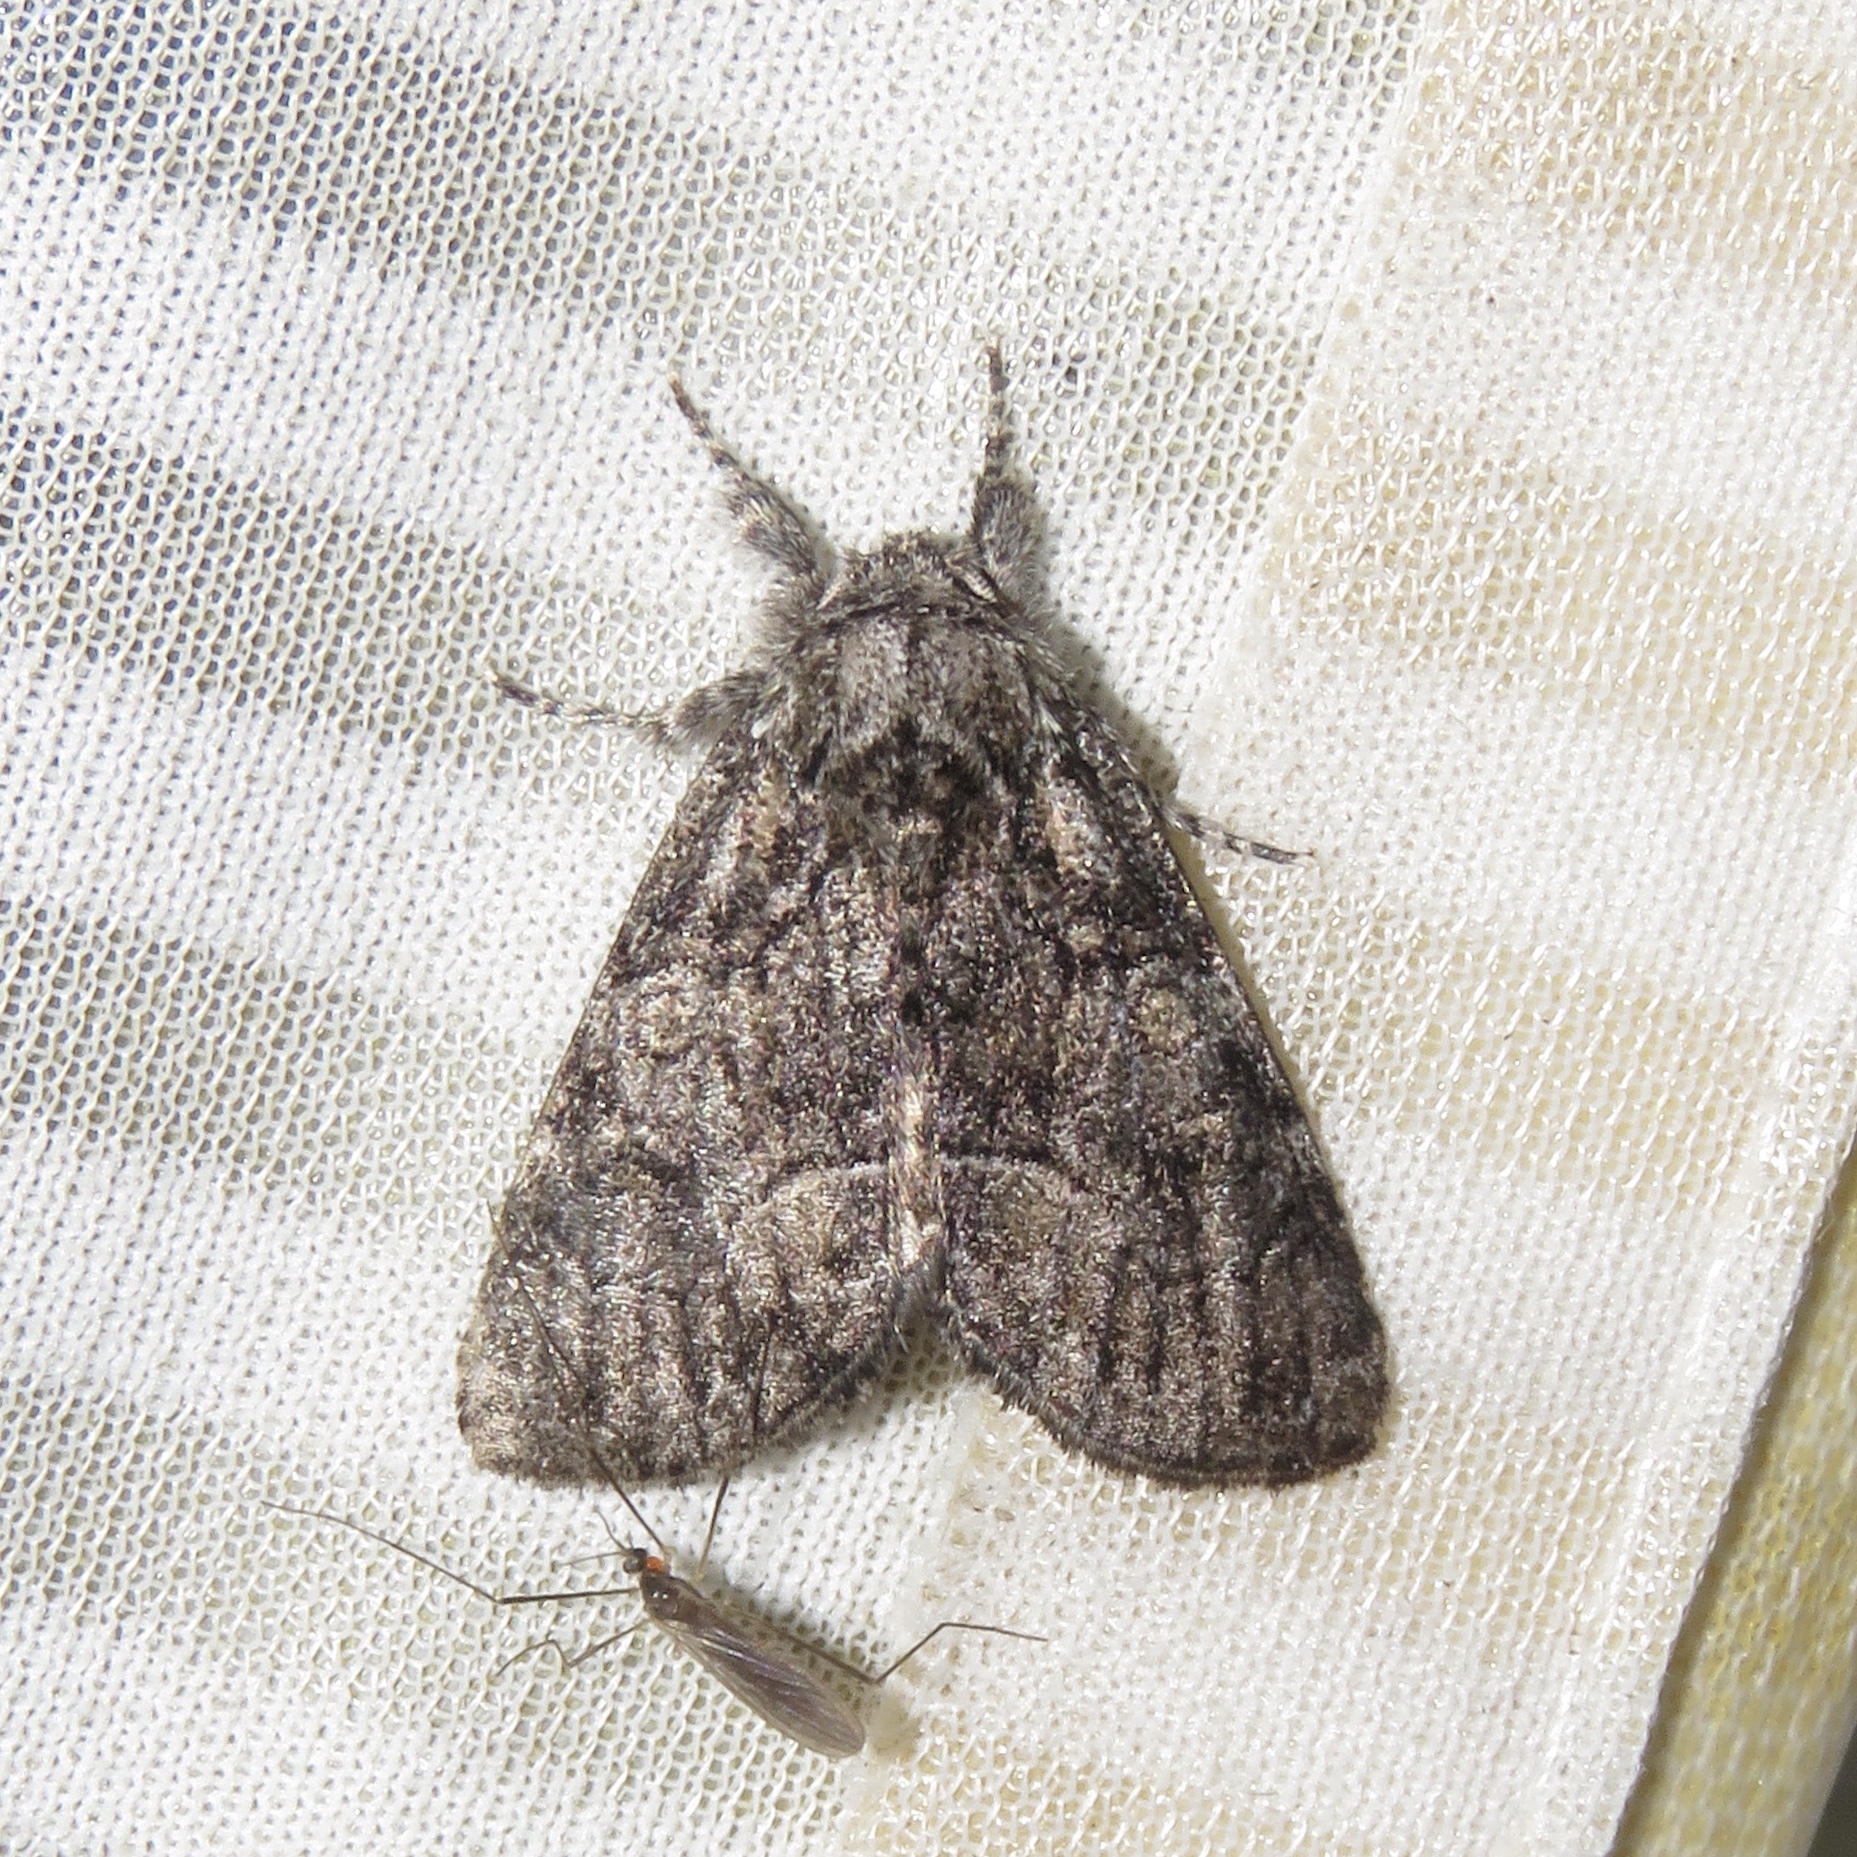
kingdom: Animalia
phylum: Arthropoda
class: Insecta
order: Lepidoptera
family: Noctuidae
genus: Raphia
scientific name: Raphia frater
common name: Brother
